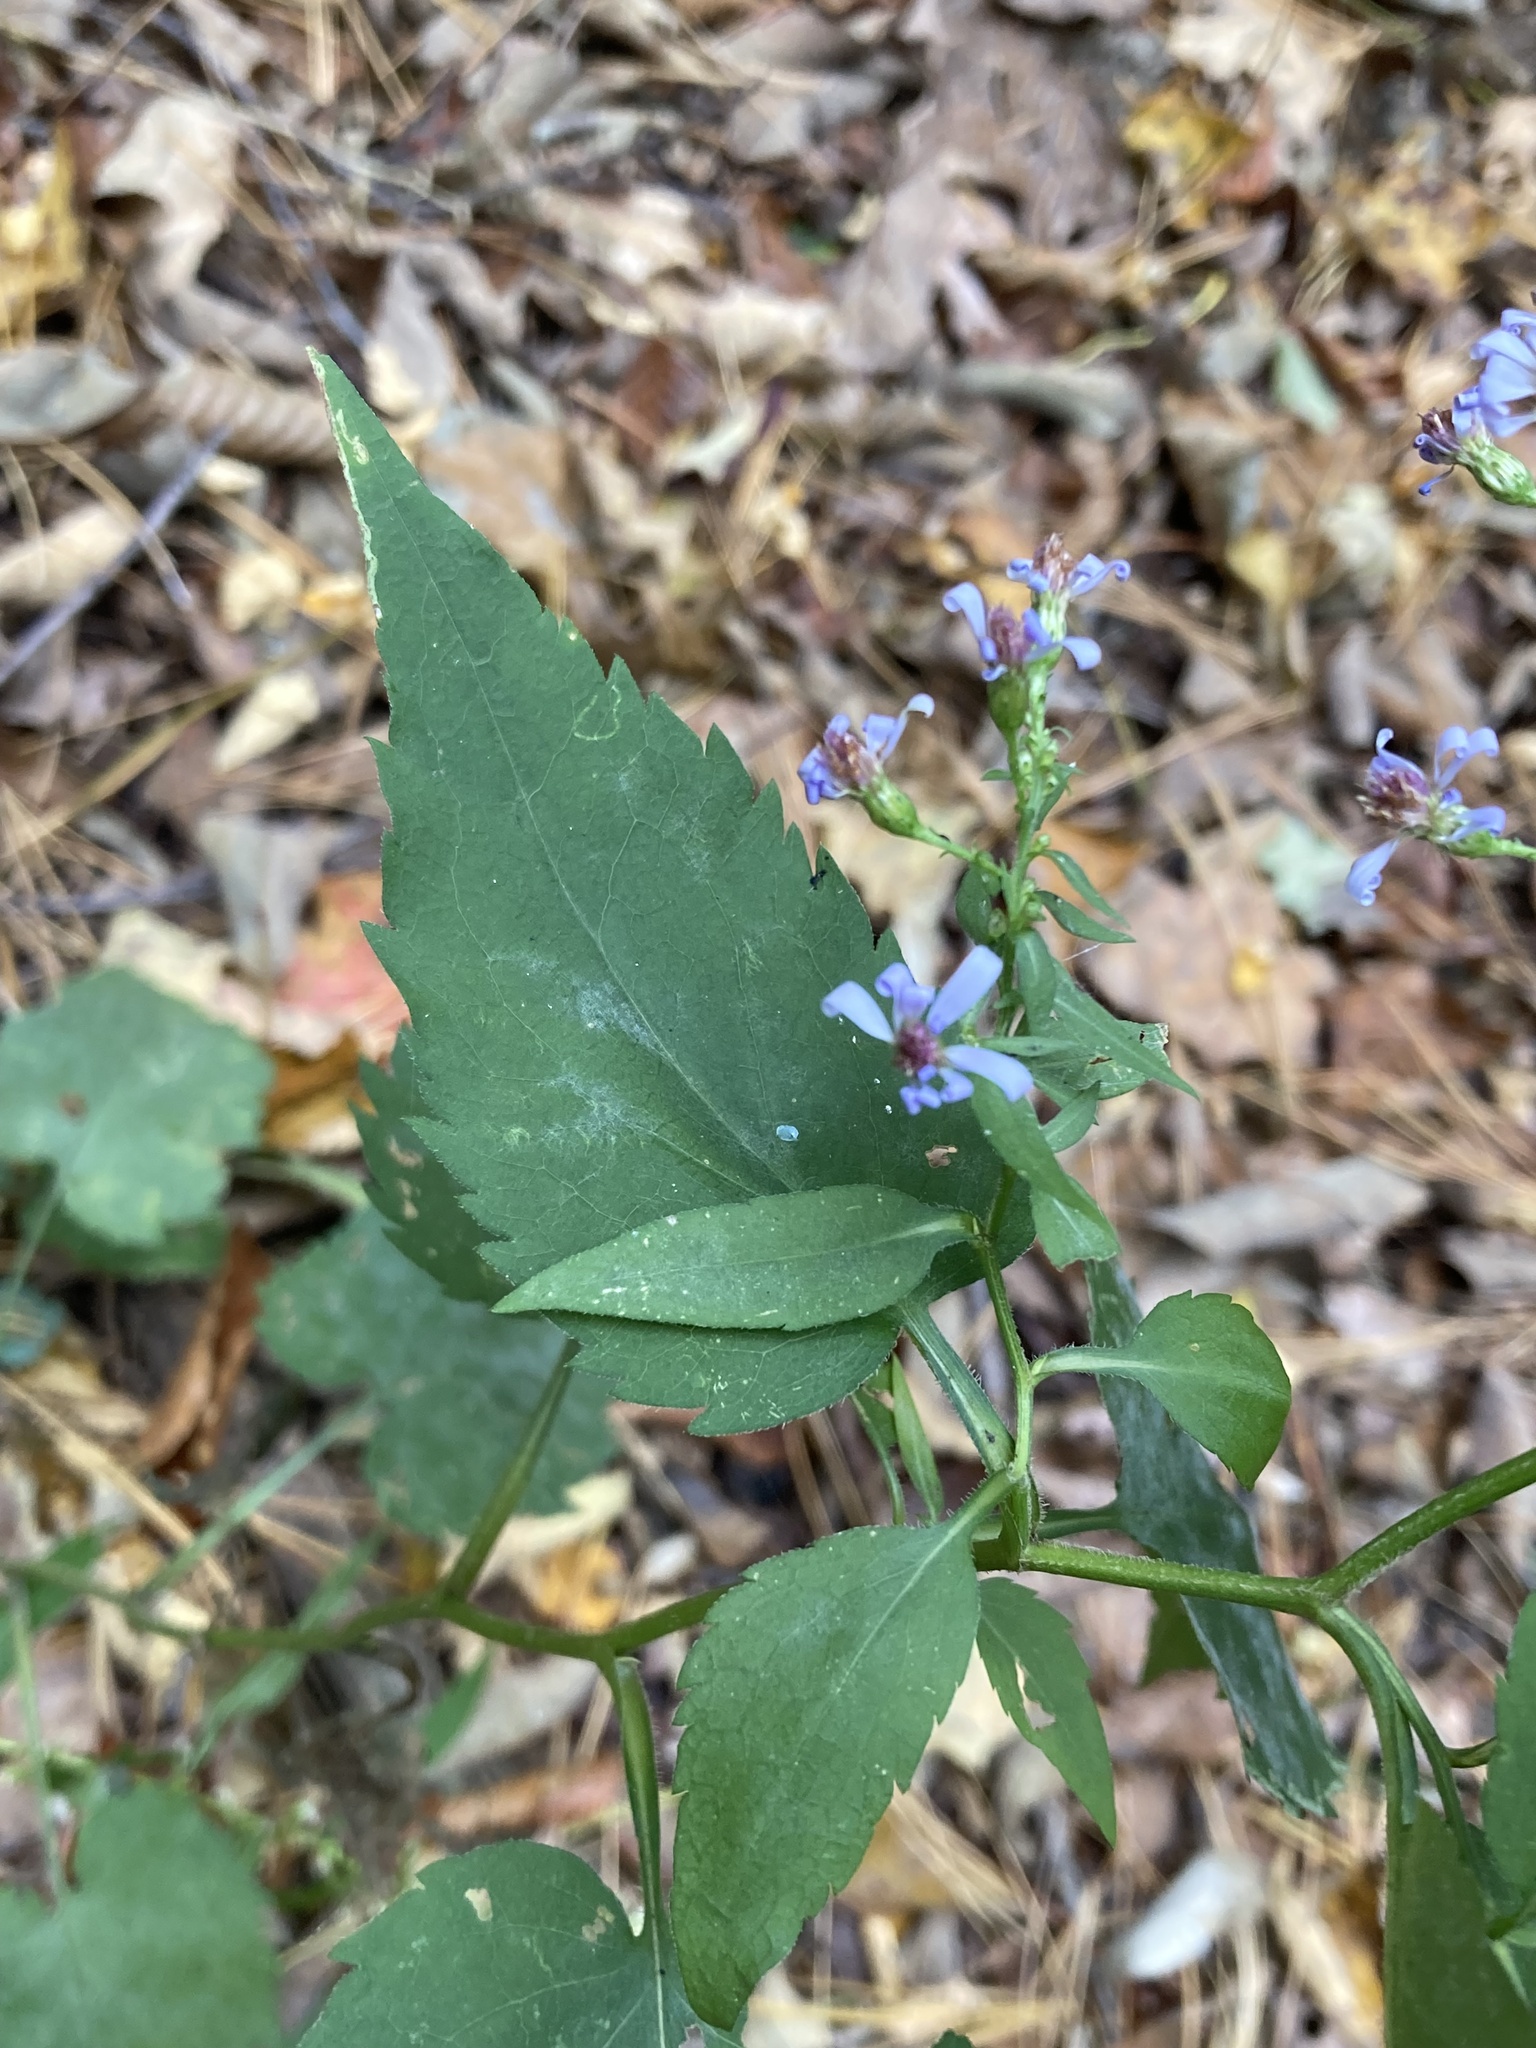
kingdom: Plantae
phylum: Tracheophyta
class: Magnoliopsida
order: Asterales
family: Asteraceae
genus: Symphyotrichum
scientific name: Symphyotrichum cordifolium
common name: Beeweed
